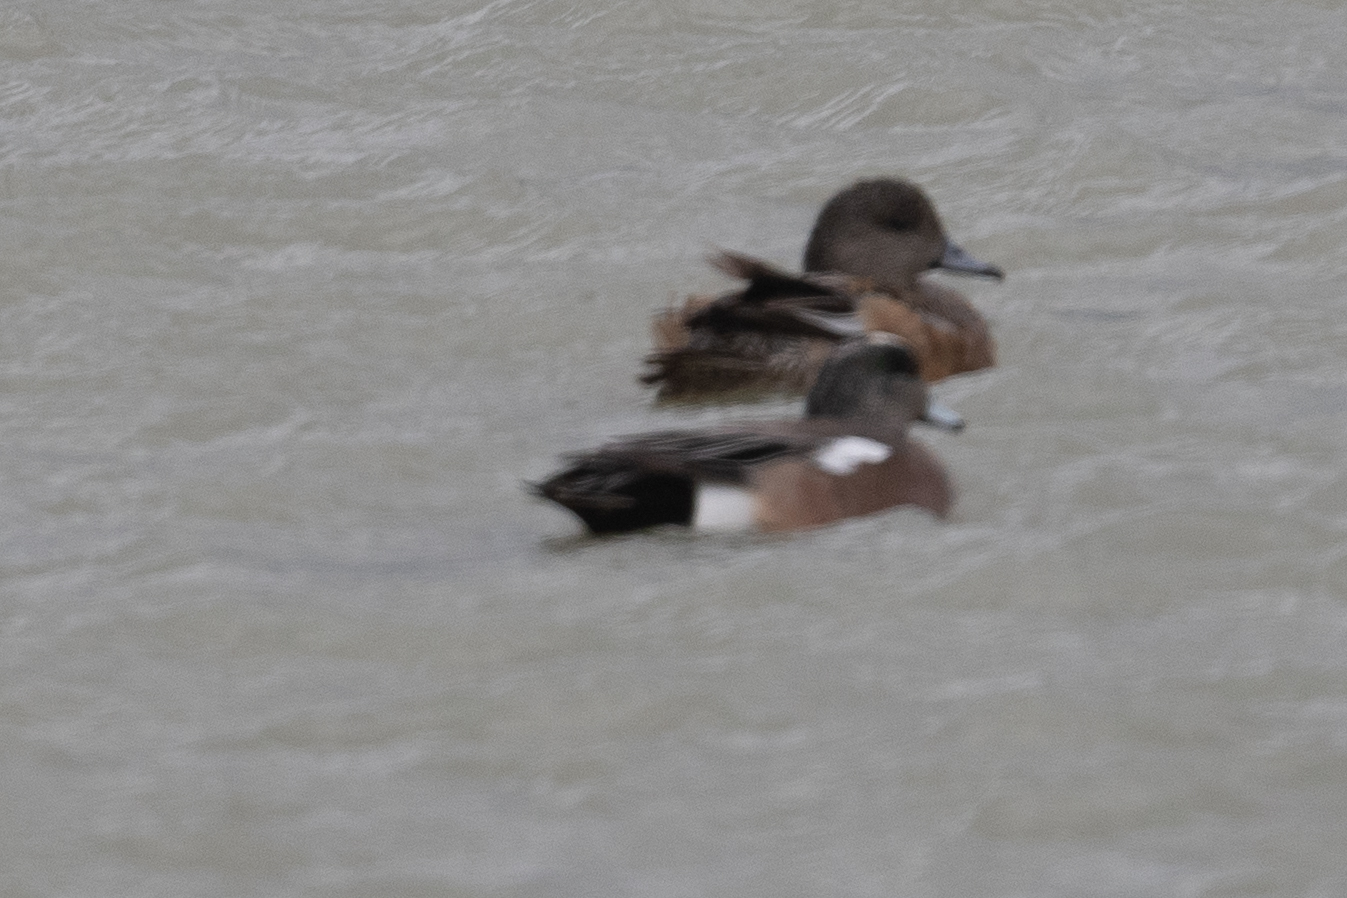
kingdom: Animalia
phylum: Chordata
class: Aves
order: Anseriformes
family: Anatidae
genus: Mareca
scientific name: Mareca americana
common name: American wigeon
